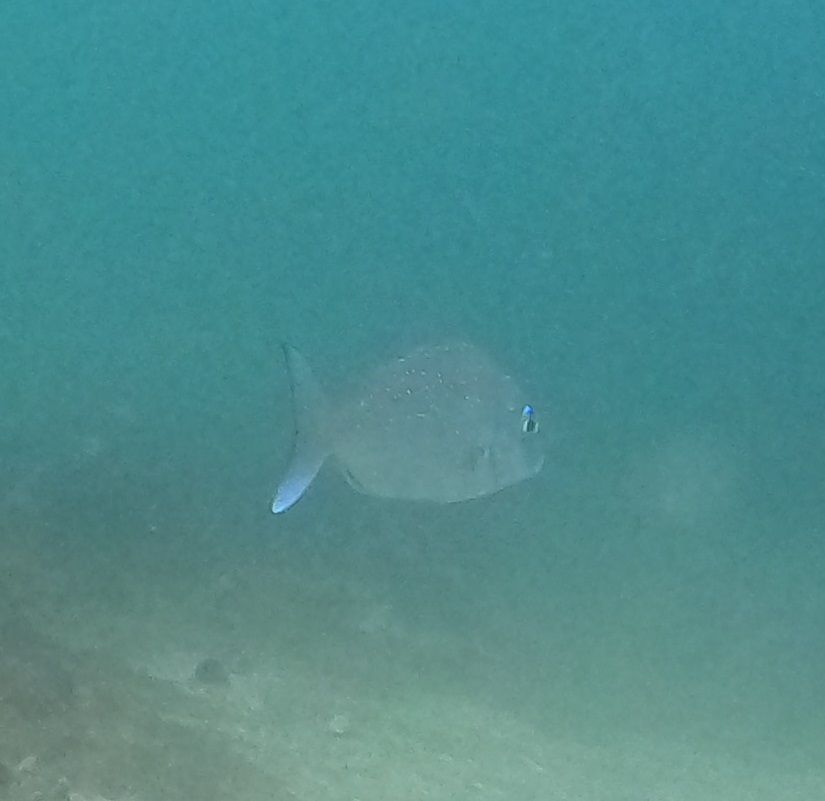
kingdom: Animalia
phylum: Chordata
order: Perciformes
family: Sparidae
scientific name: Sparidae
